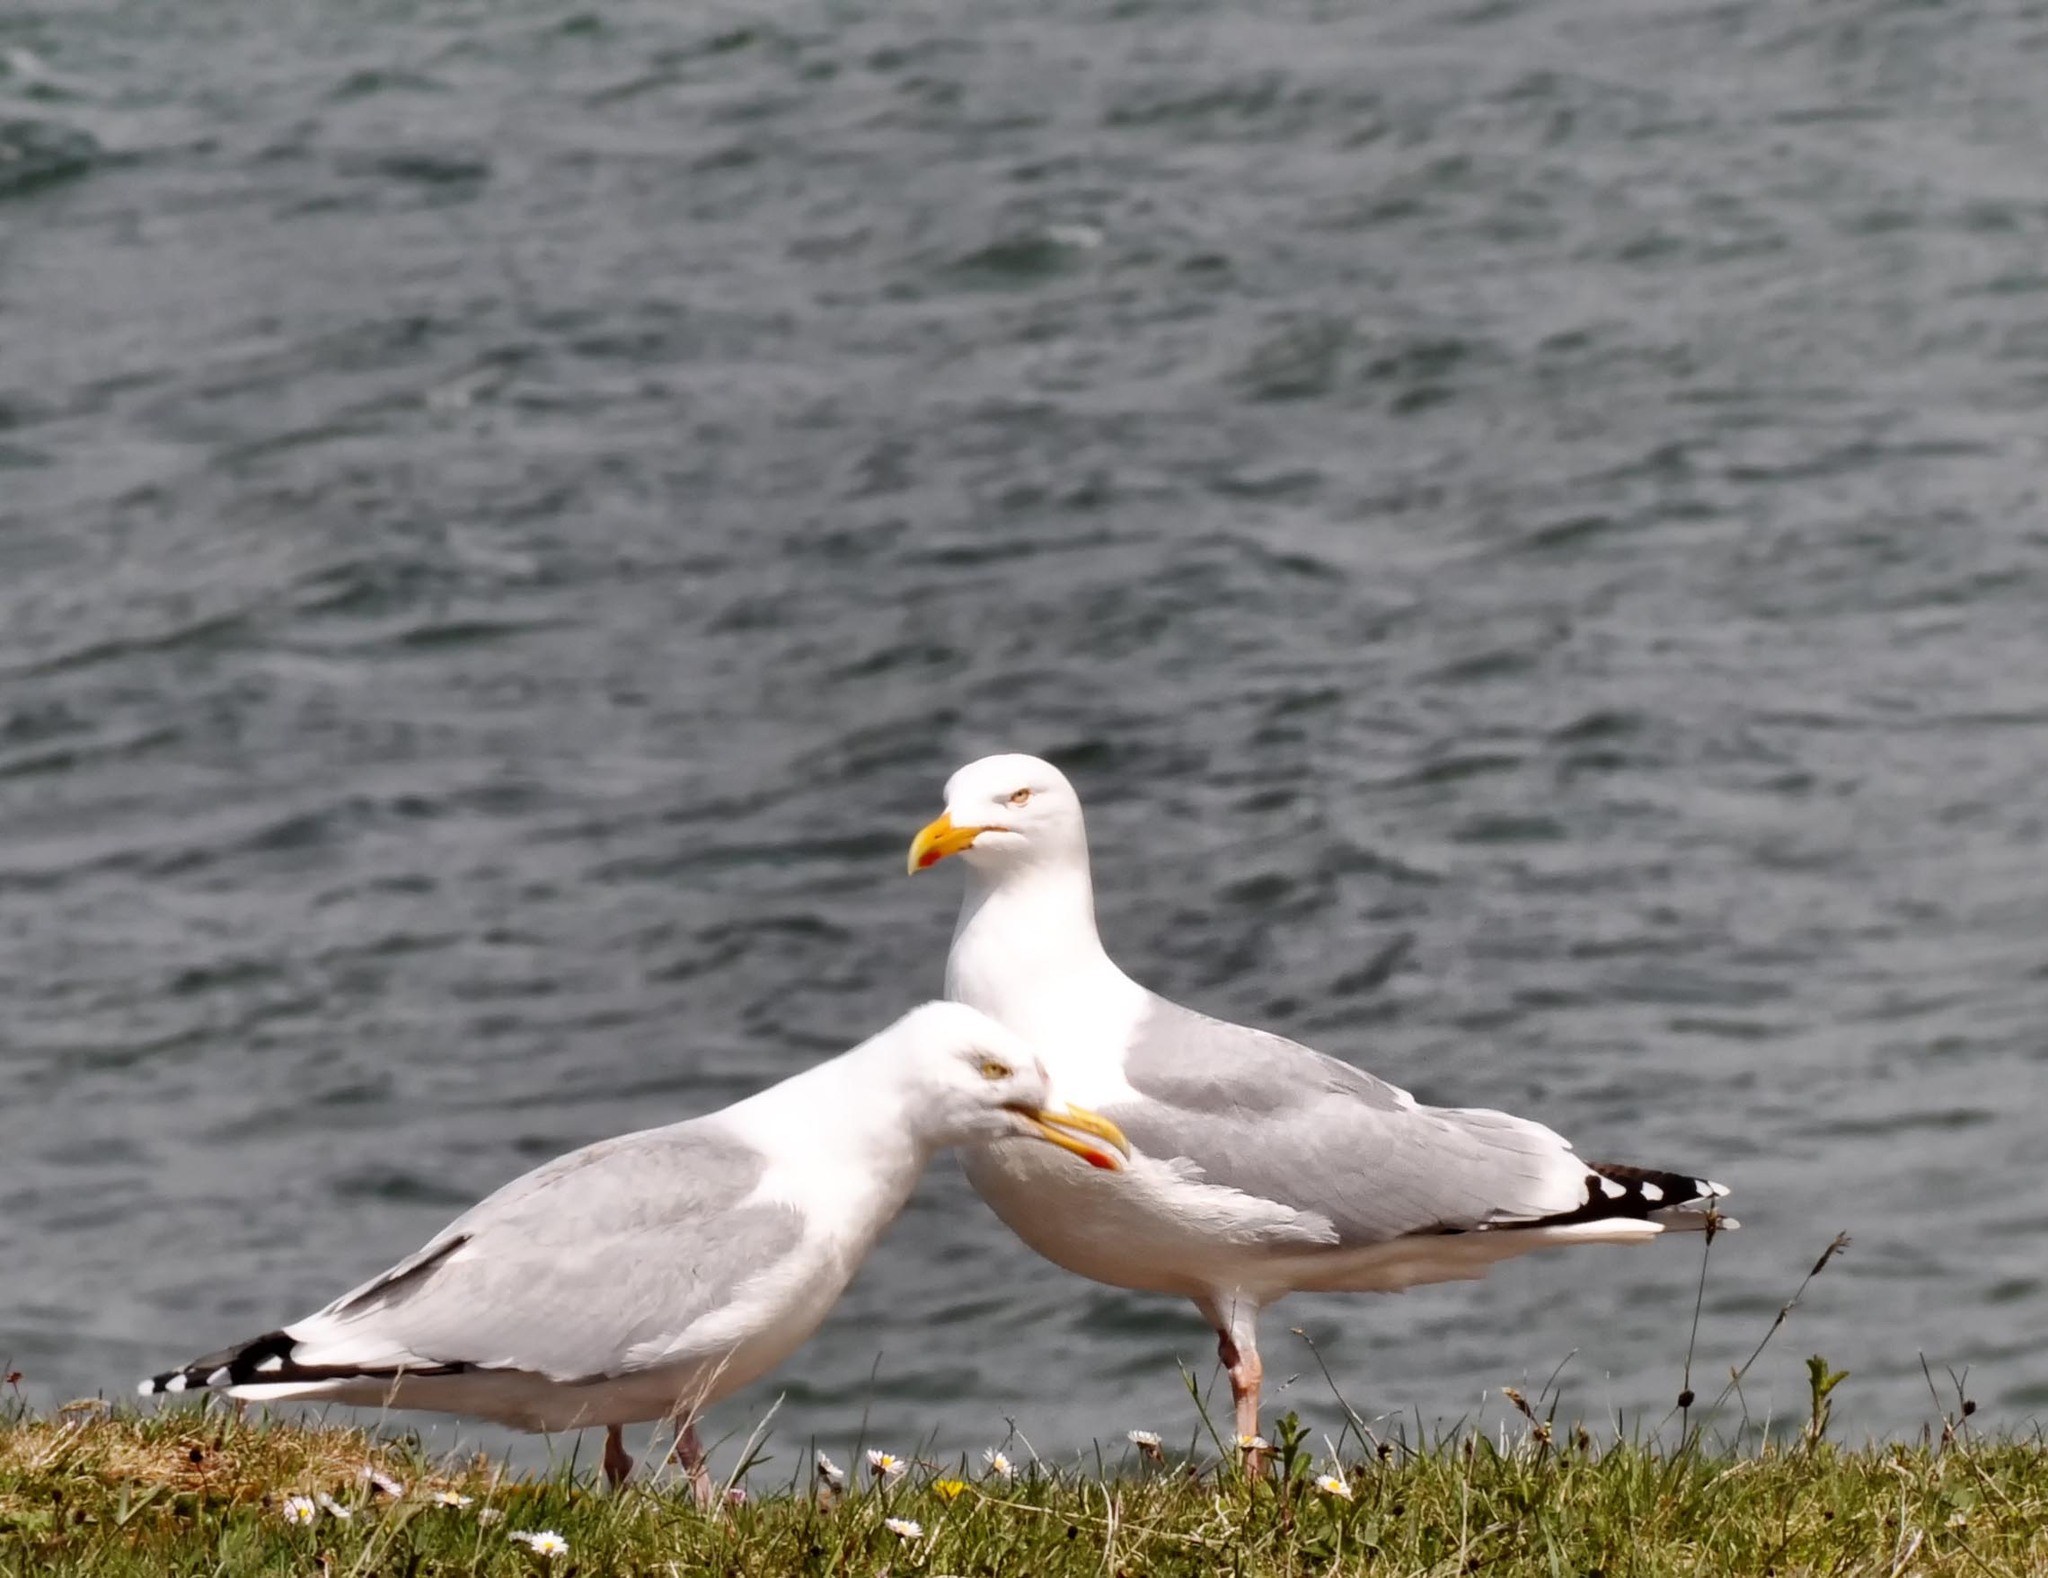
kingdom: Animalia
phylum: Chordata
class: Aves
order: Charadriiformes
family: Laridae
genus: Larus
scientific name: Larus argentatus
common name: Herring gull
